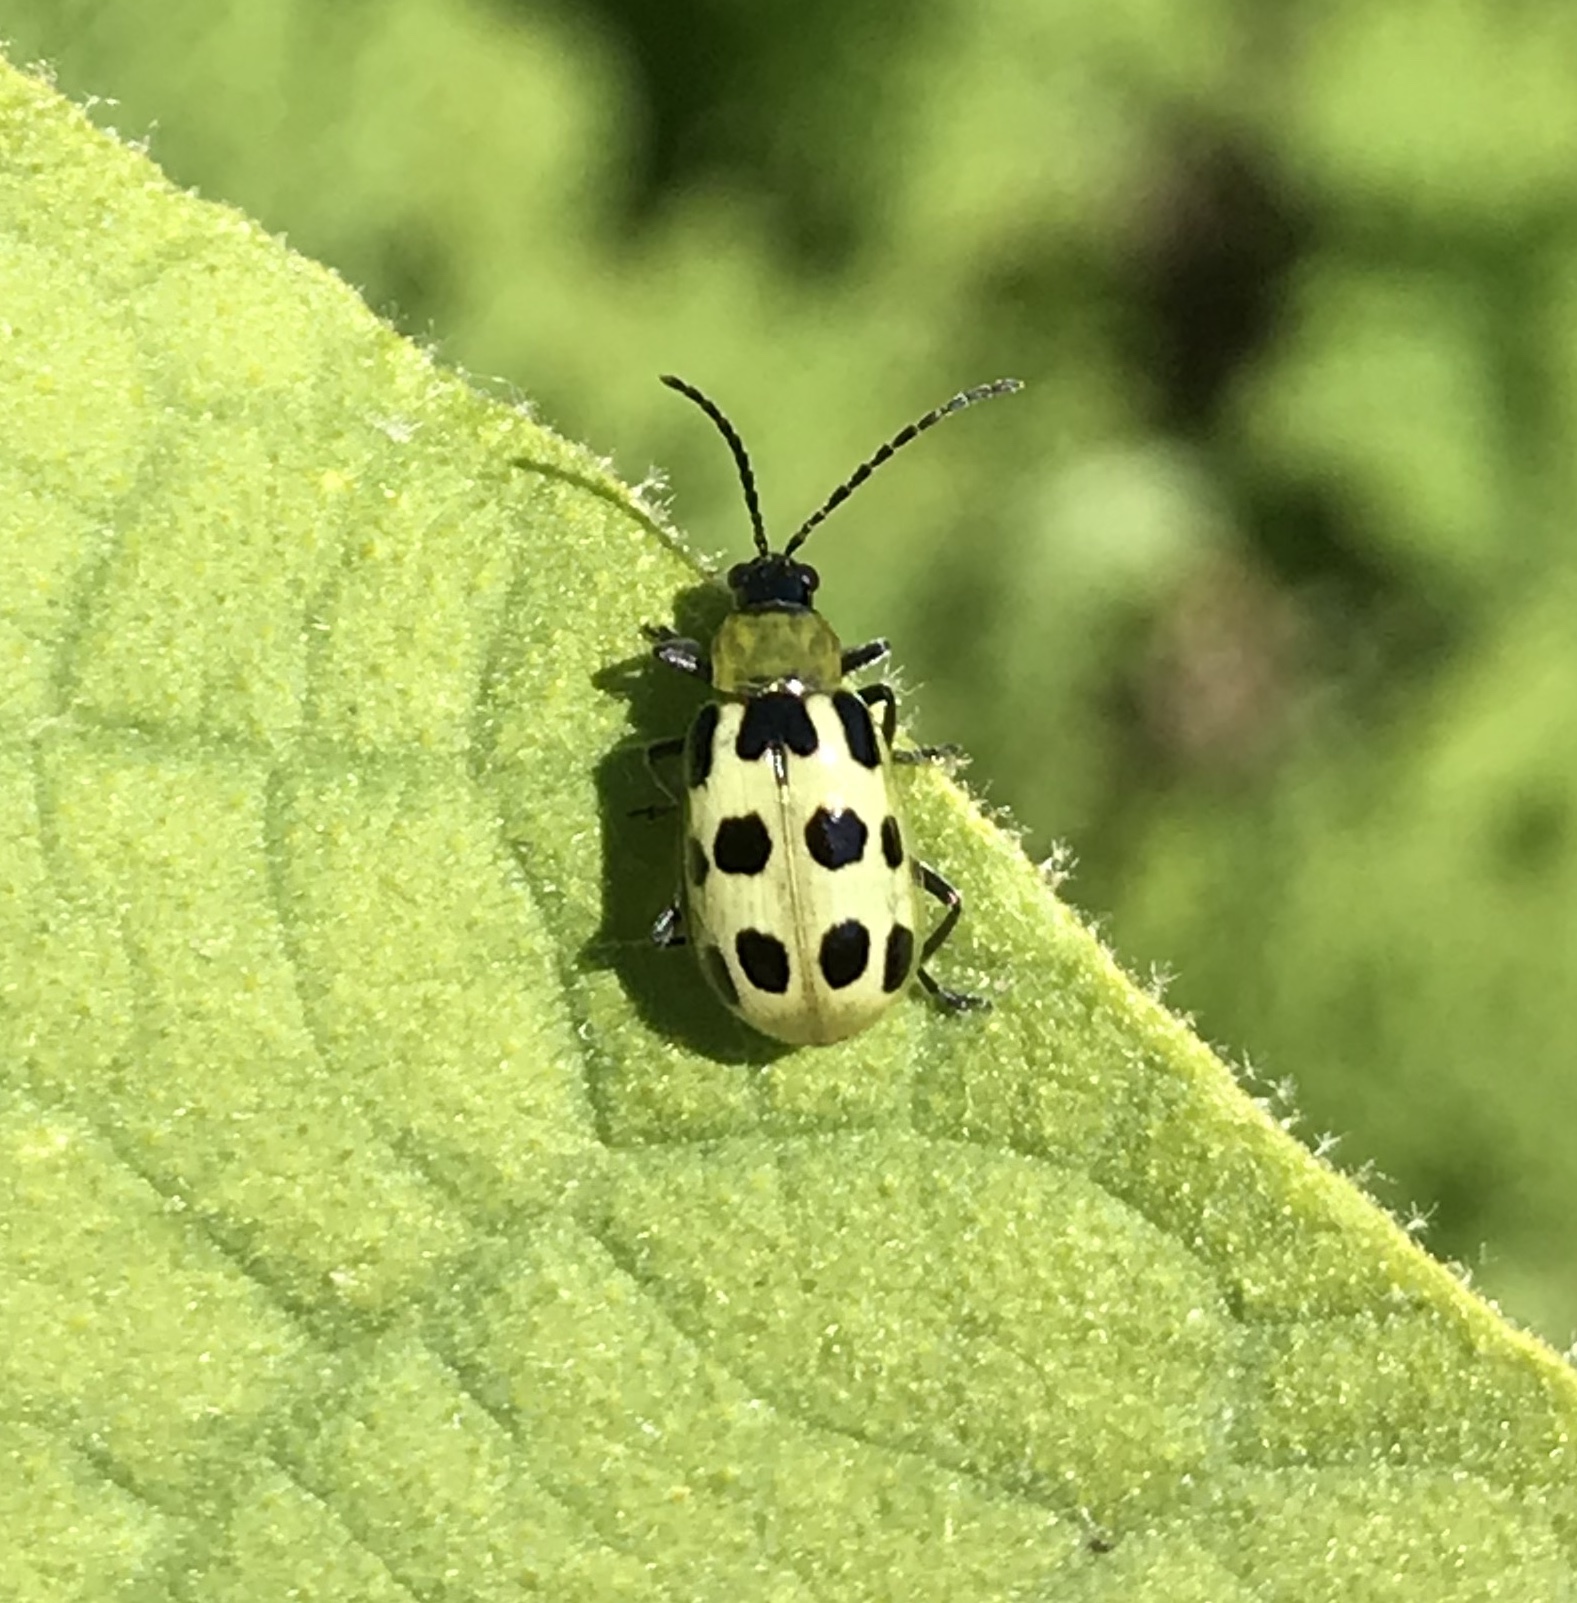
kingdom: Animalia
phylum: Arthropoda
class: Insecta
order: Coleoptera
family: Chrysomelidae
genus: Diabrotica
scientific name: Diabrotica undecimpunctata
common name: Spotted cucumber beetle
